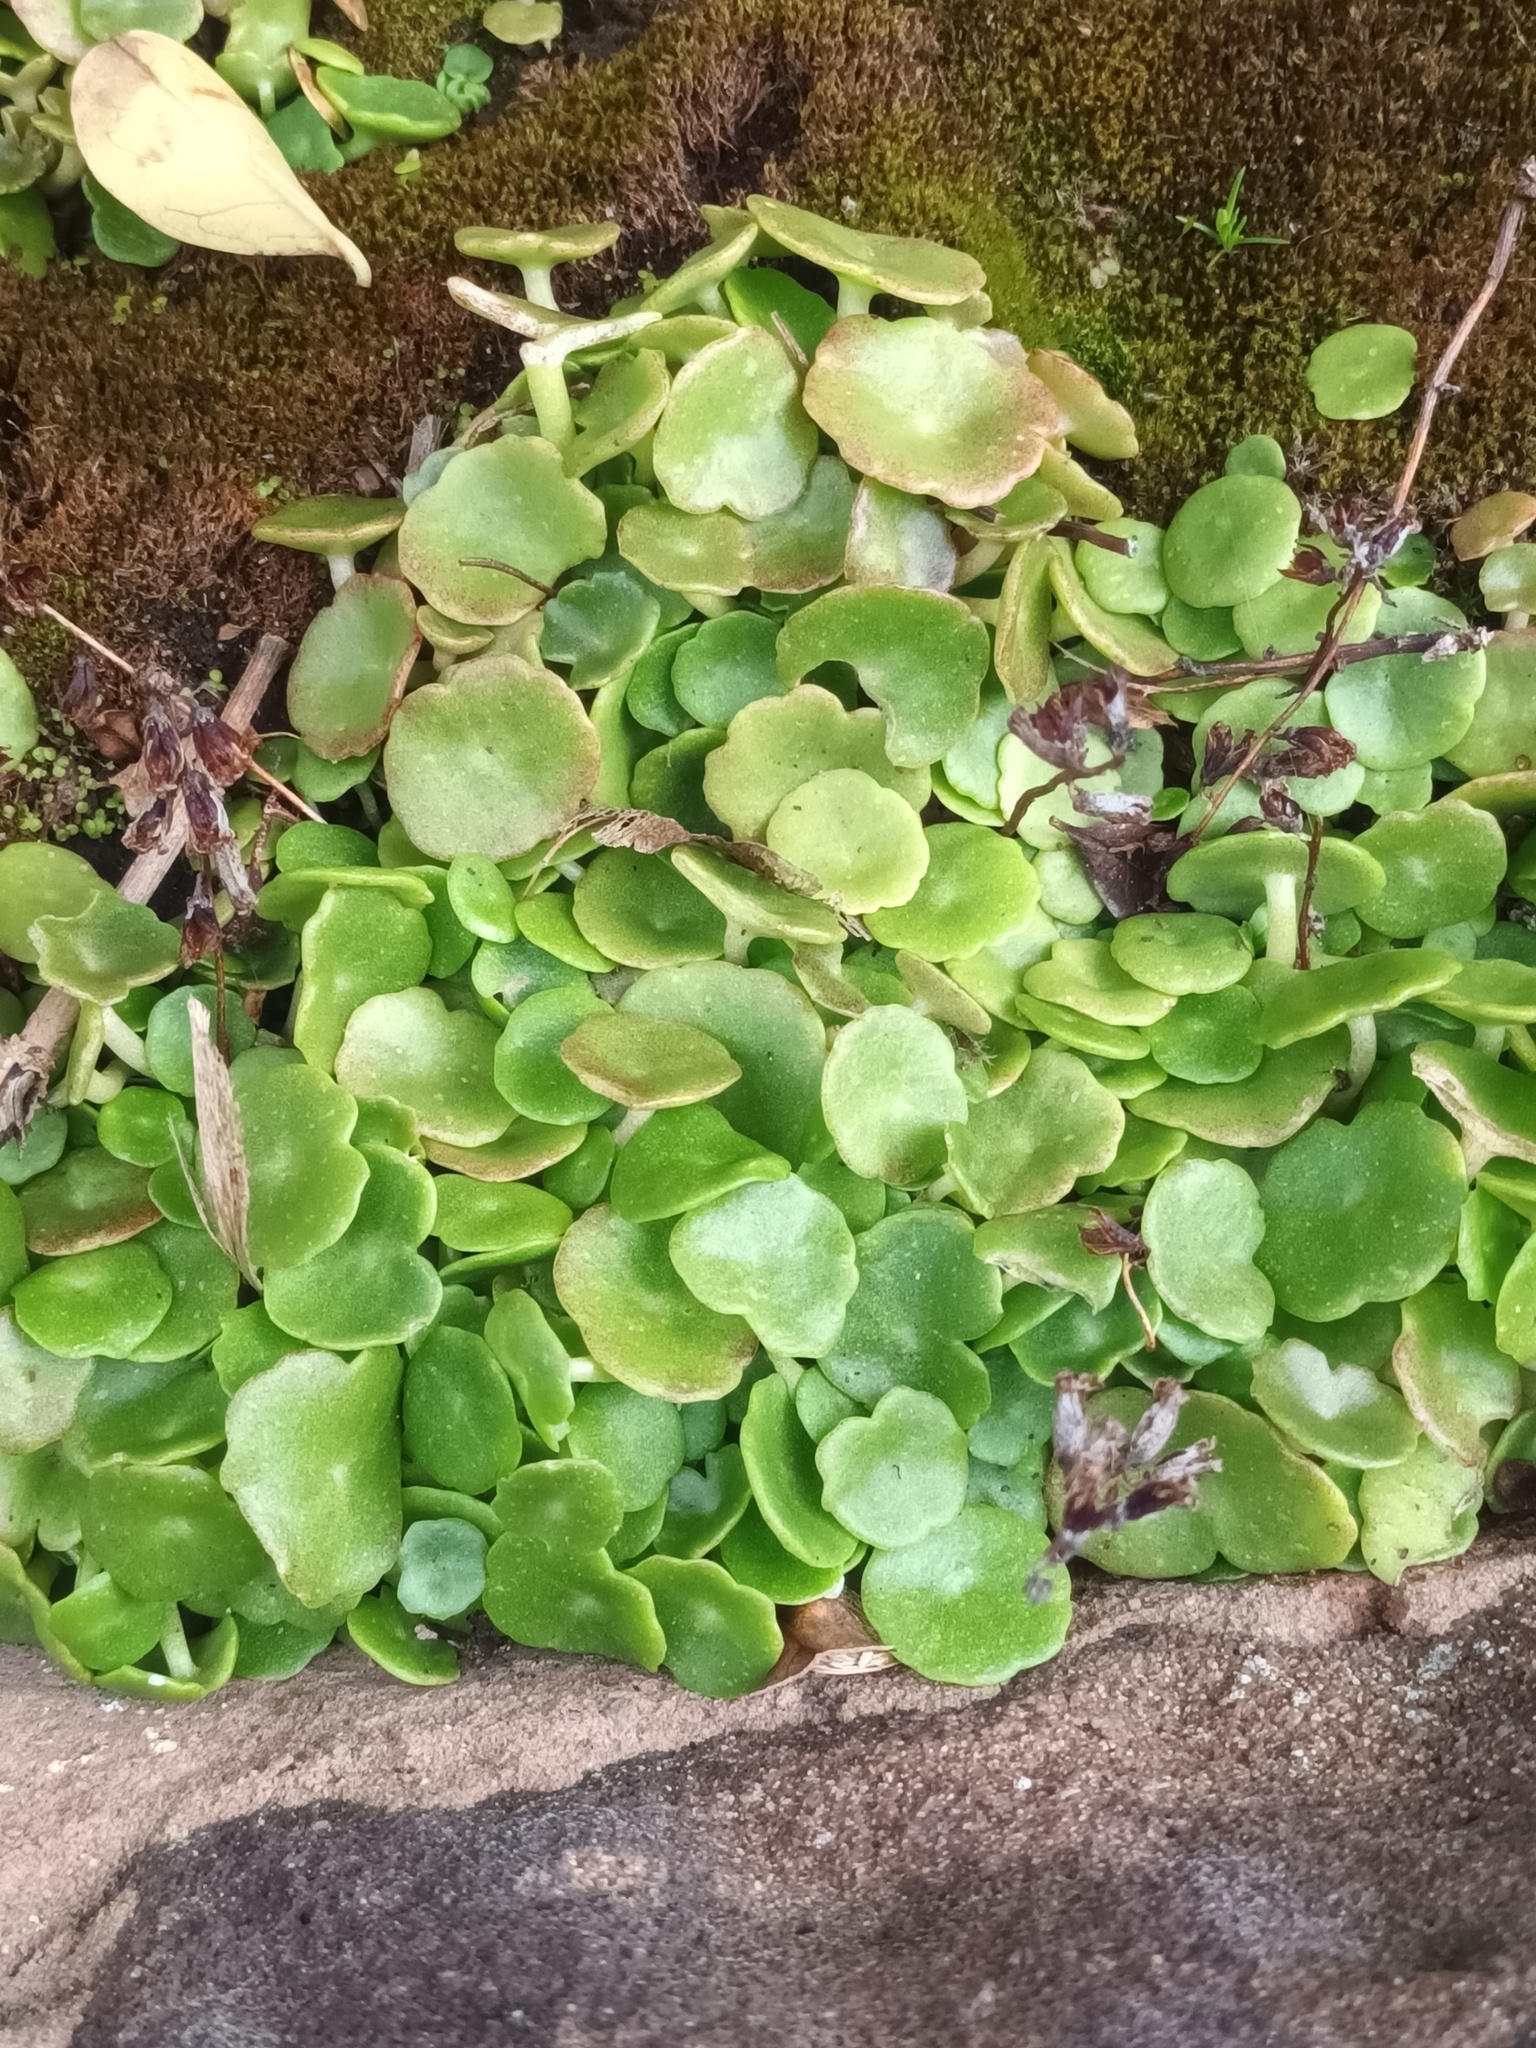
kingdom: Plantae
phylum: Tracheophyta
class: Magnoliopsida
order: Saxifragales
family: Crassulaceae
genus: Umbilicus
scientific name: Umbilicus rupestris
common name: Navelwort
